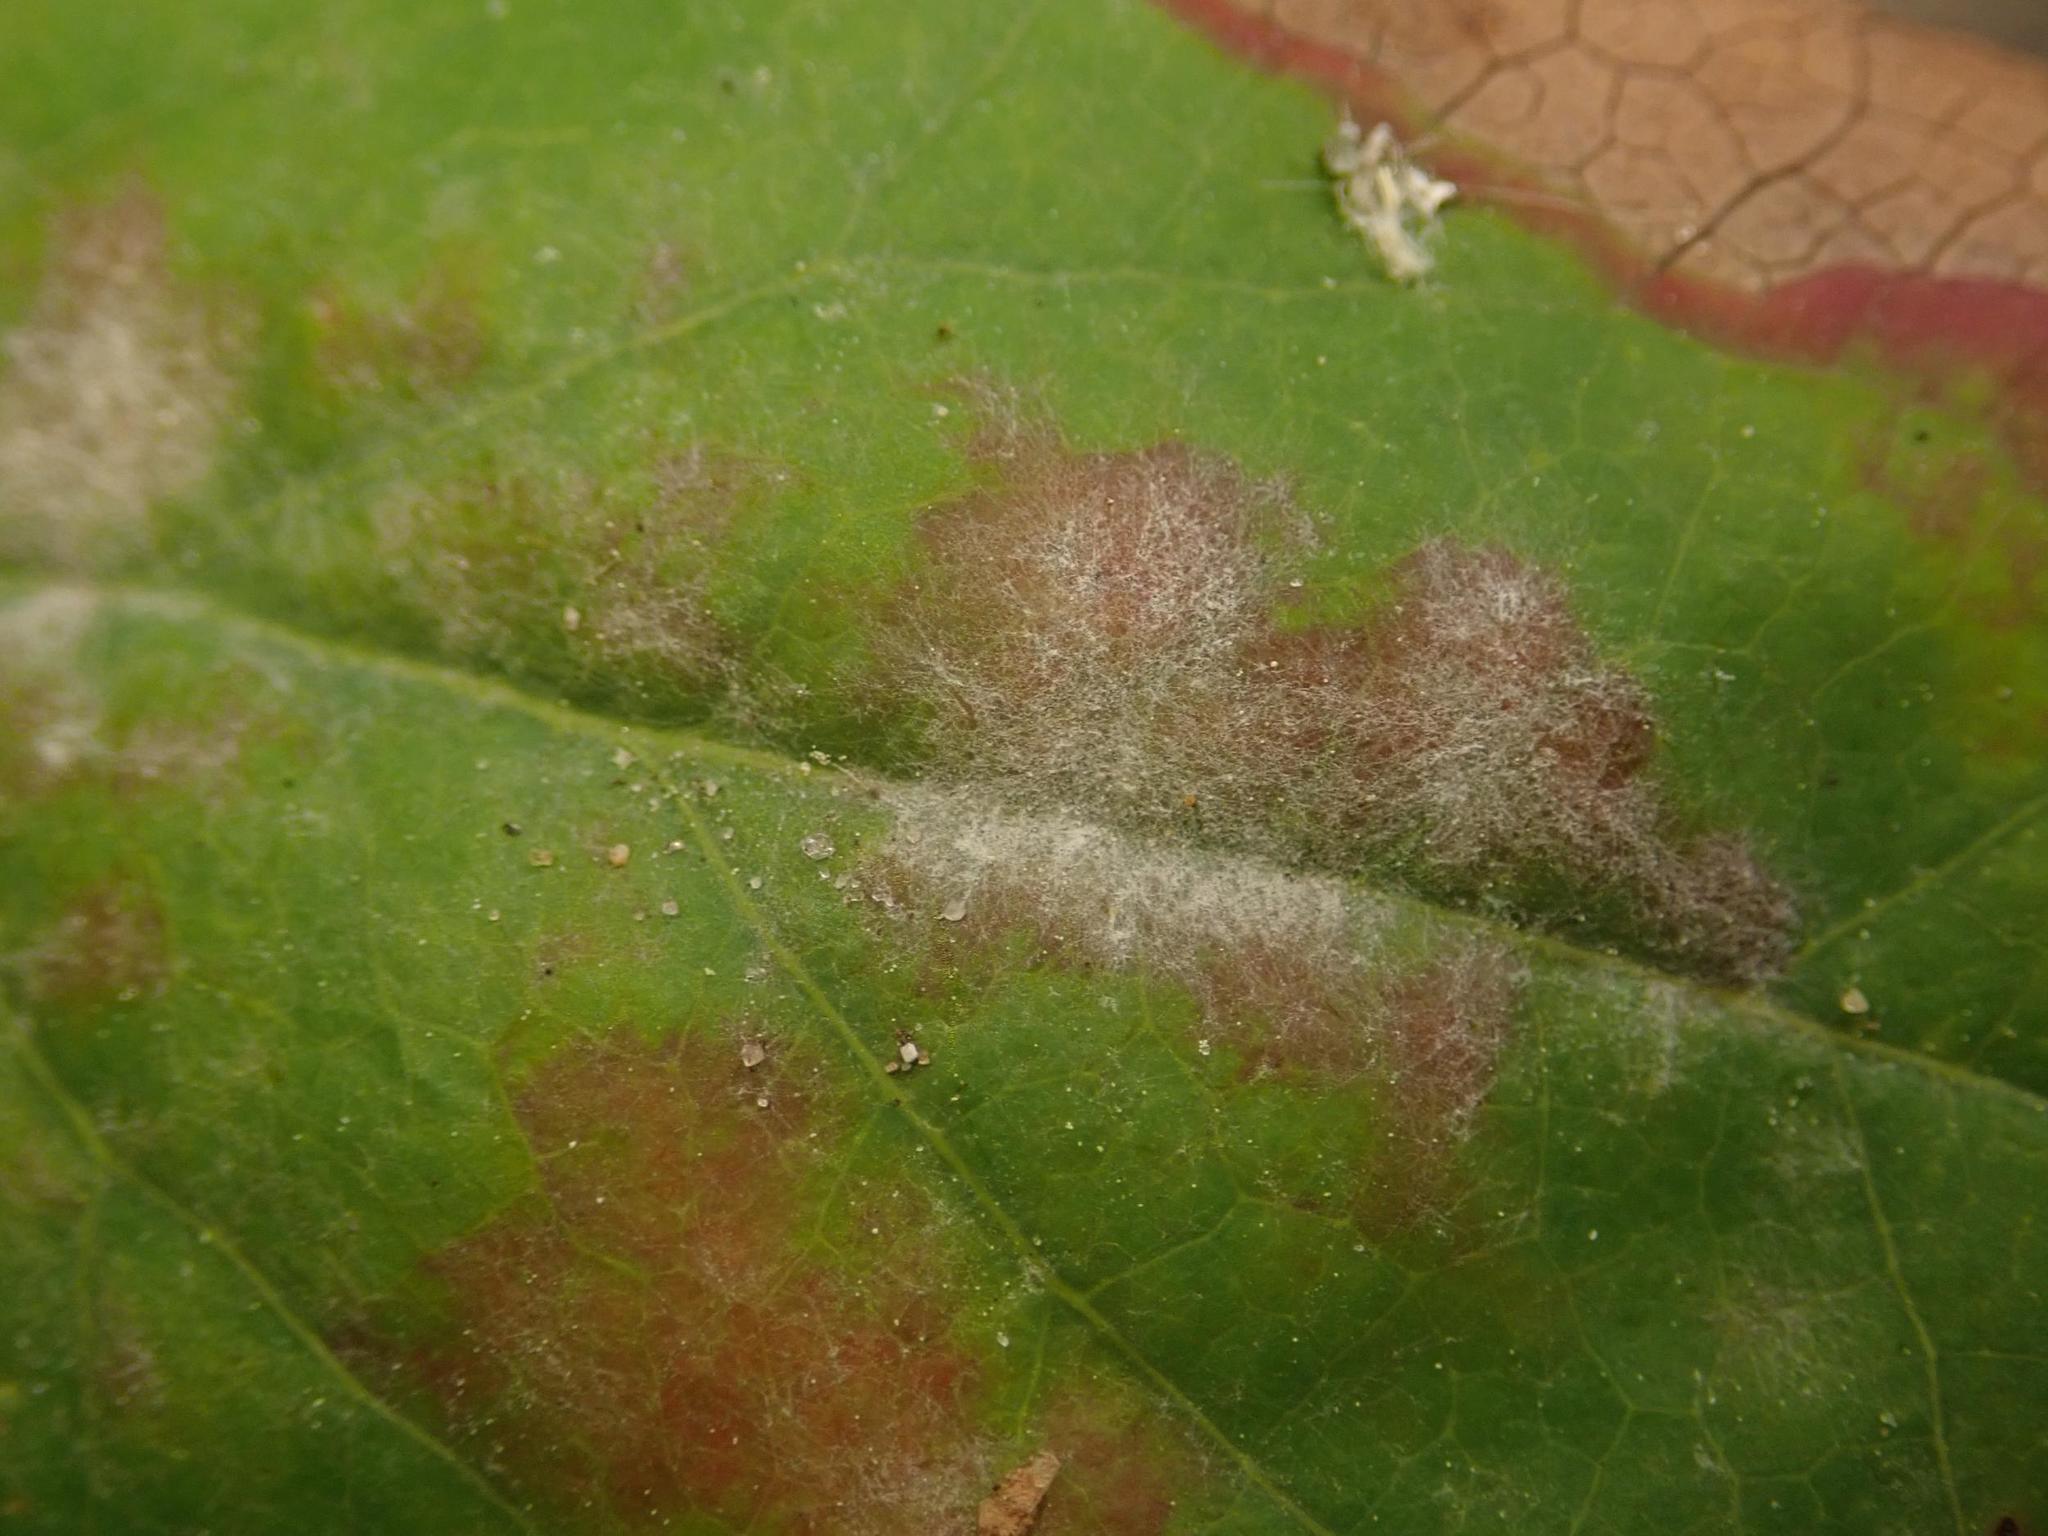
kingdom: Fungi
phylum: Ascomycota
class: Leotiomycetes
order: Helotiales
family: Erysiphaceae
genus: Erysiphe
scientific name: Erysiphe berberidis
